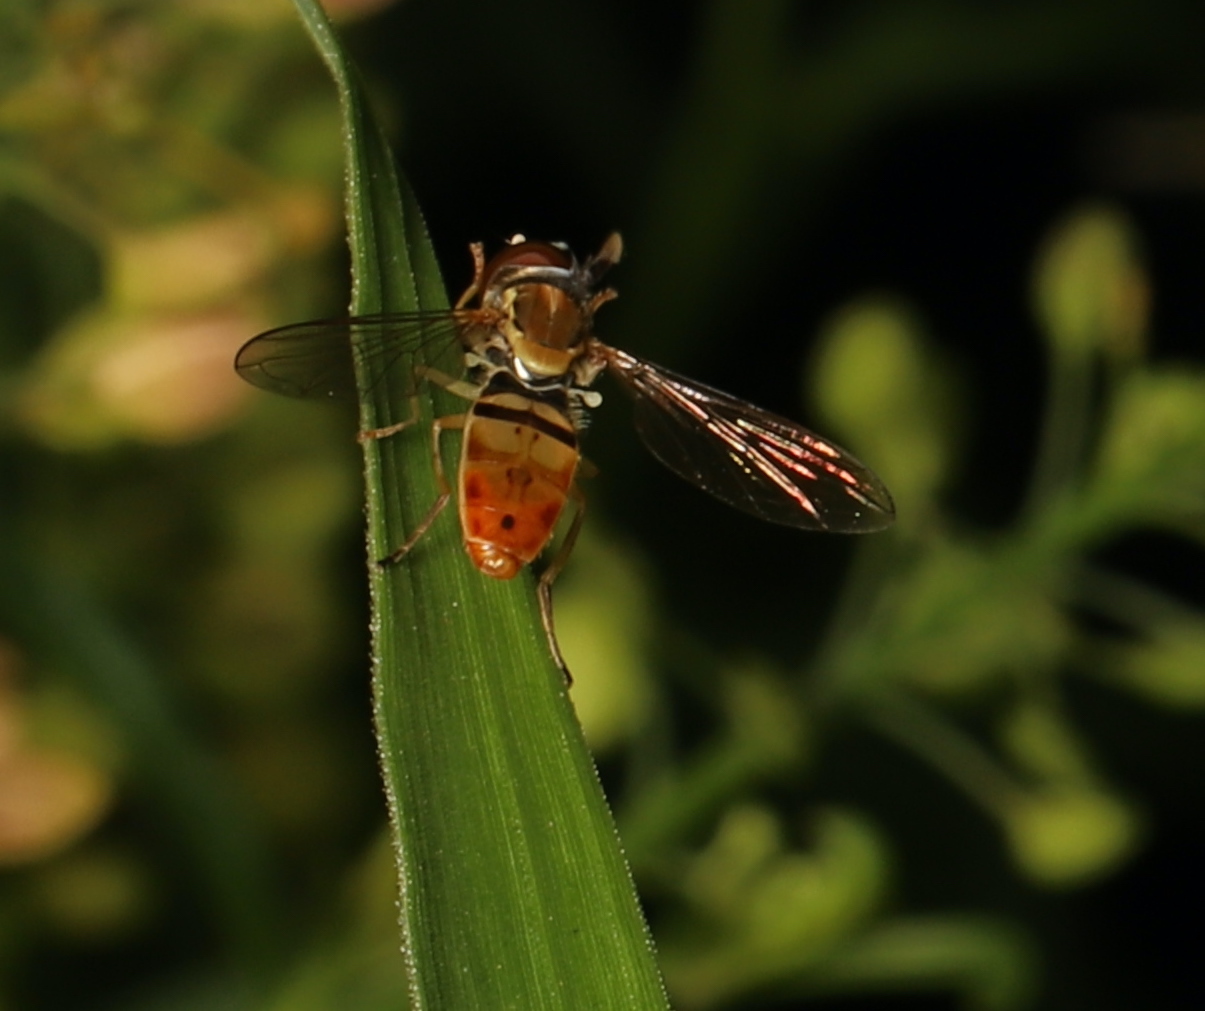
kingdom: Animalia
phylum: Arthropoda
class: Insecta
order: Diptera
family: Syrphidae
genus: Toxomerus
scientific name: Toxomerus marginatus
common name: Syrphid fly
